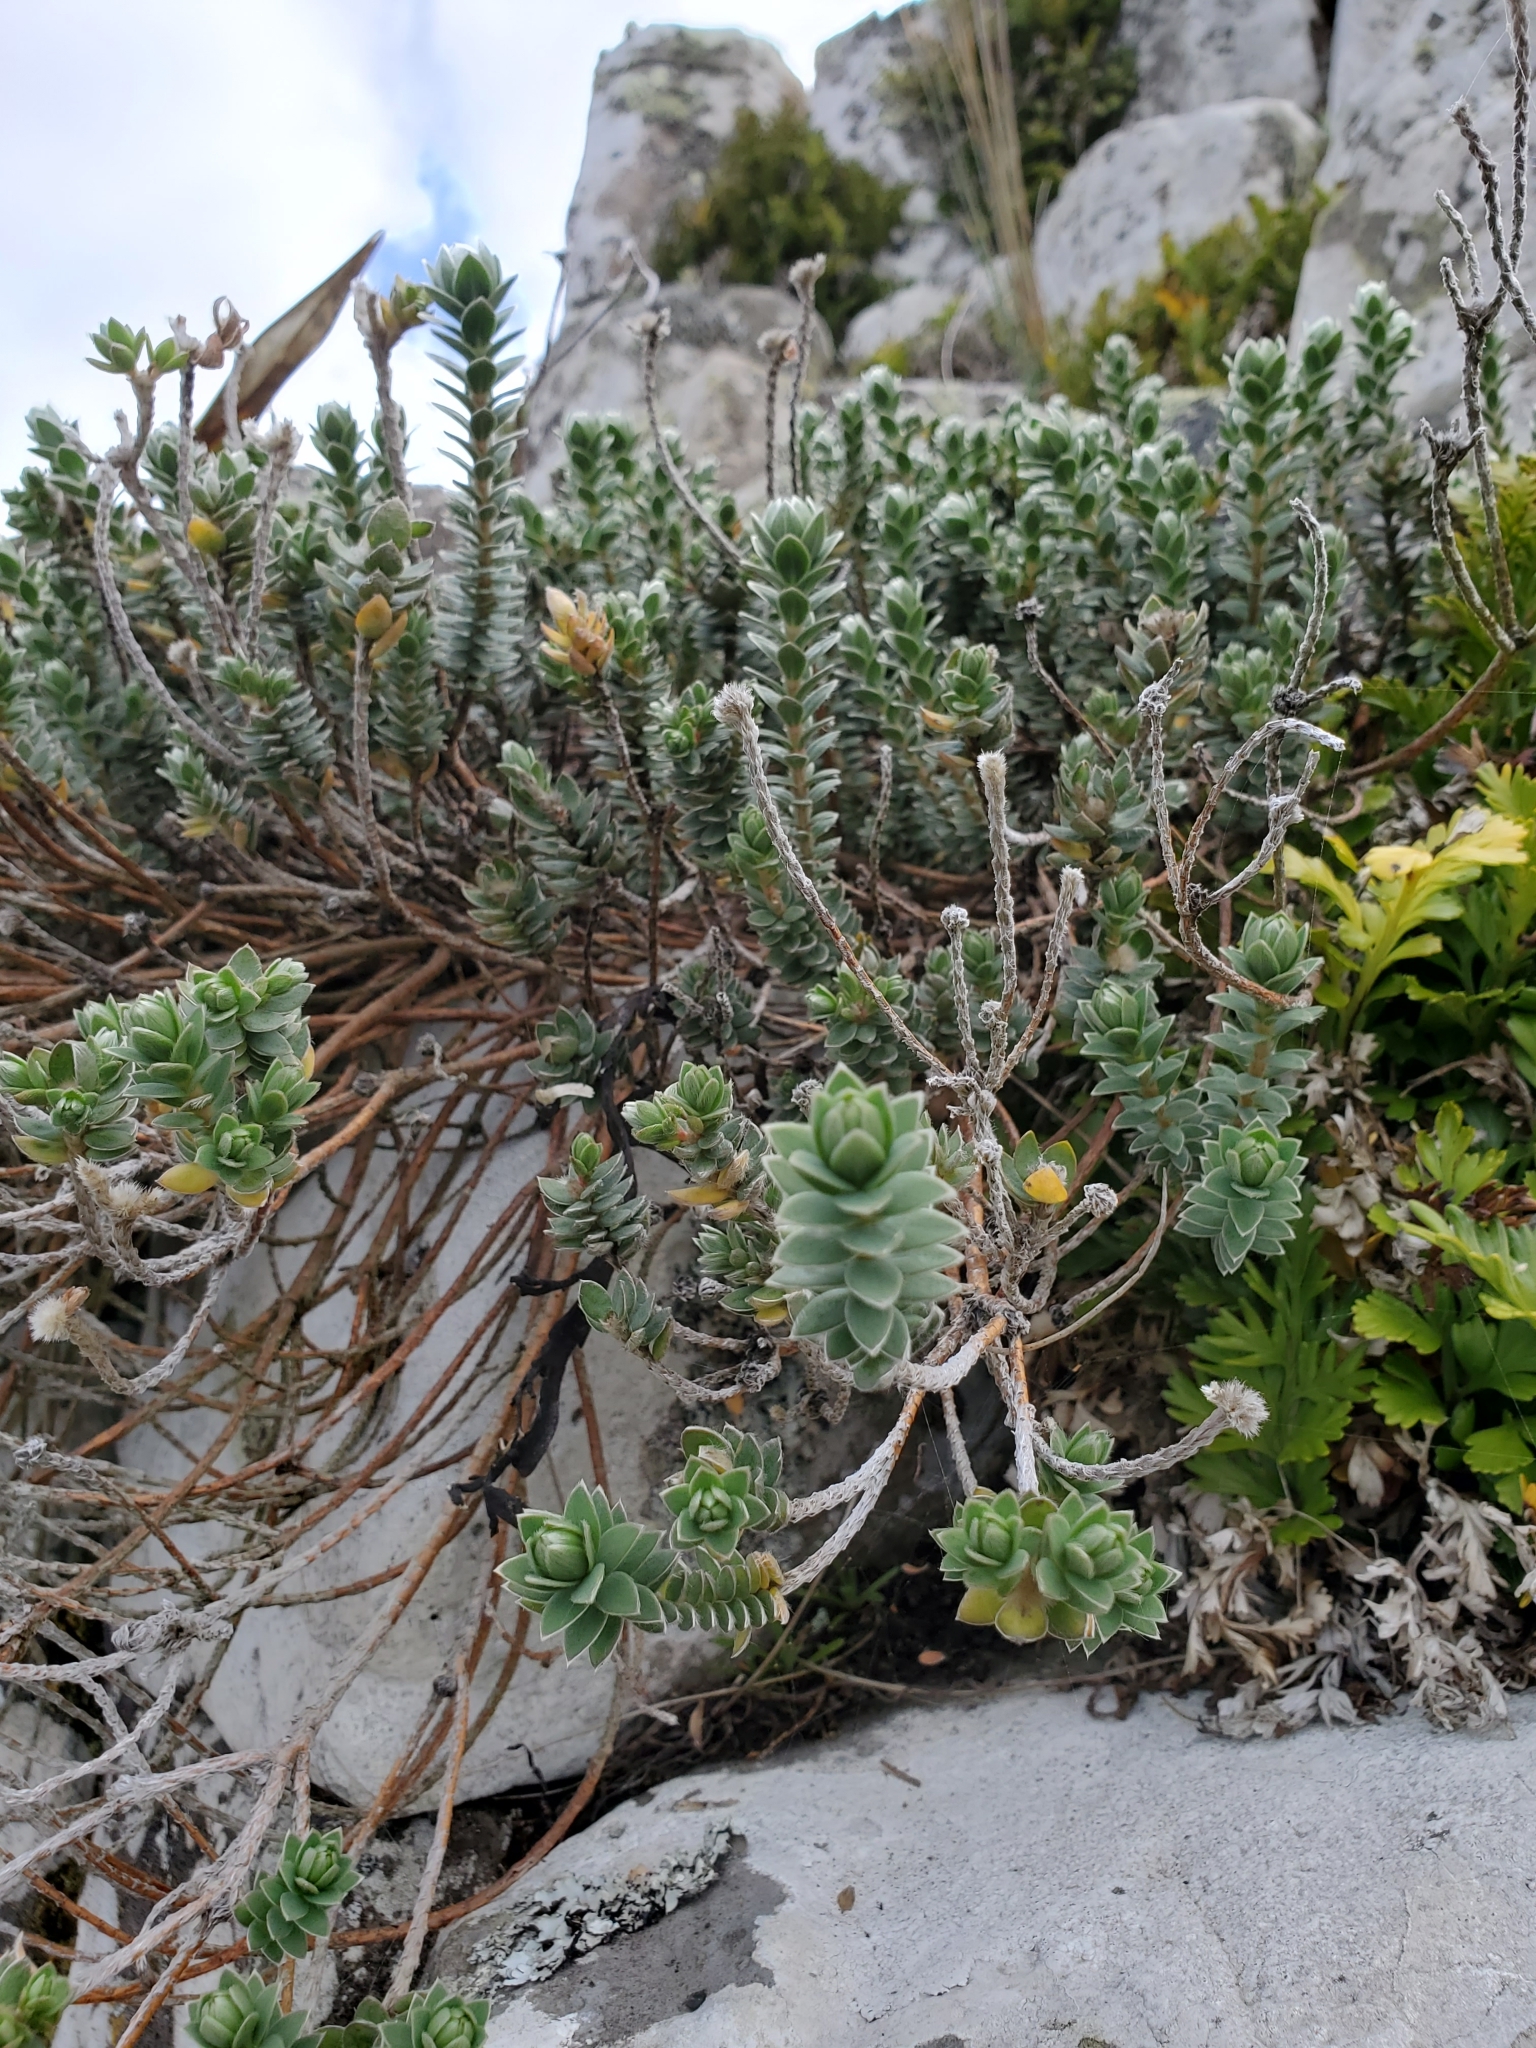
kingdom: Plantae
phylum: Tracheophyta
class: Magnoliopsida
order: Malvales
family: Thymelaeaceae
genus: Pimelea
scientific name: Pimelea villosa
